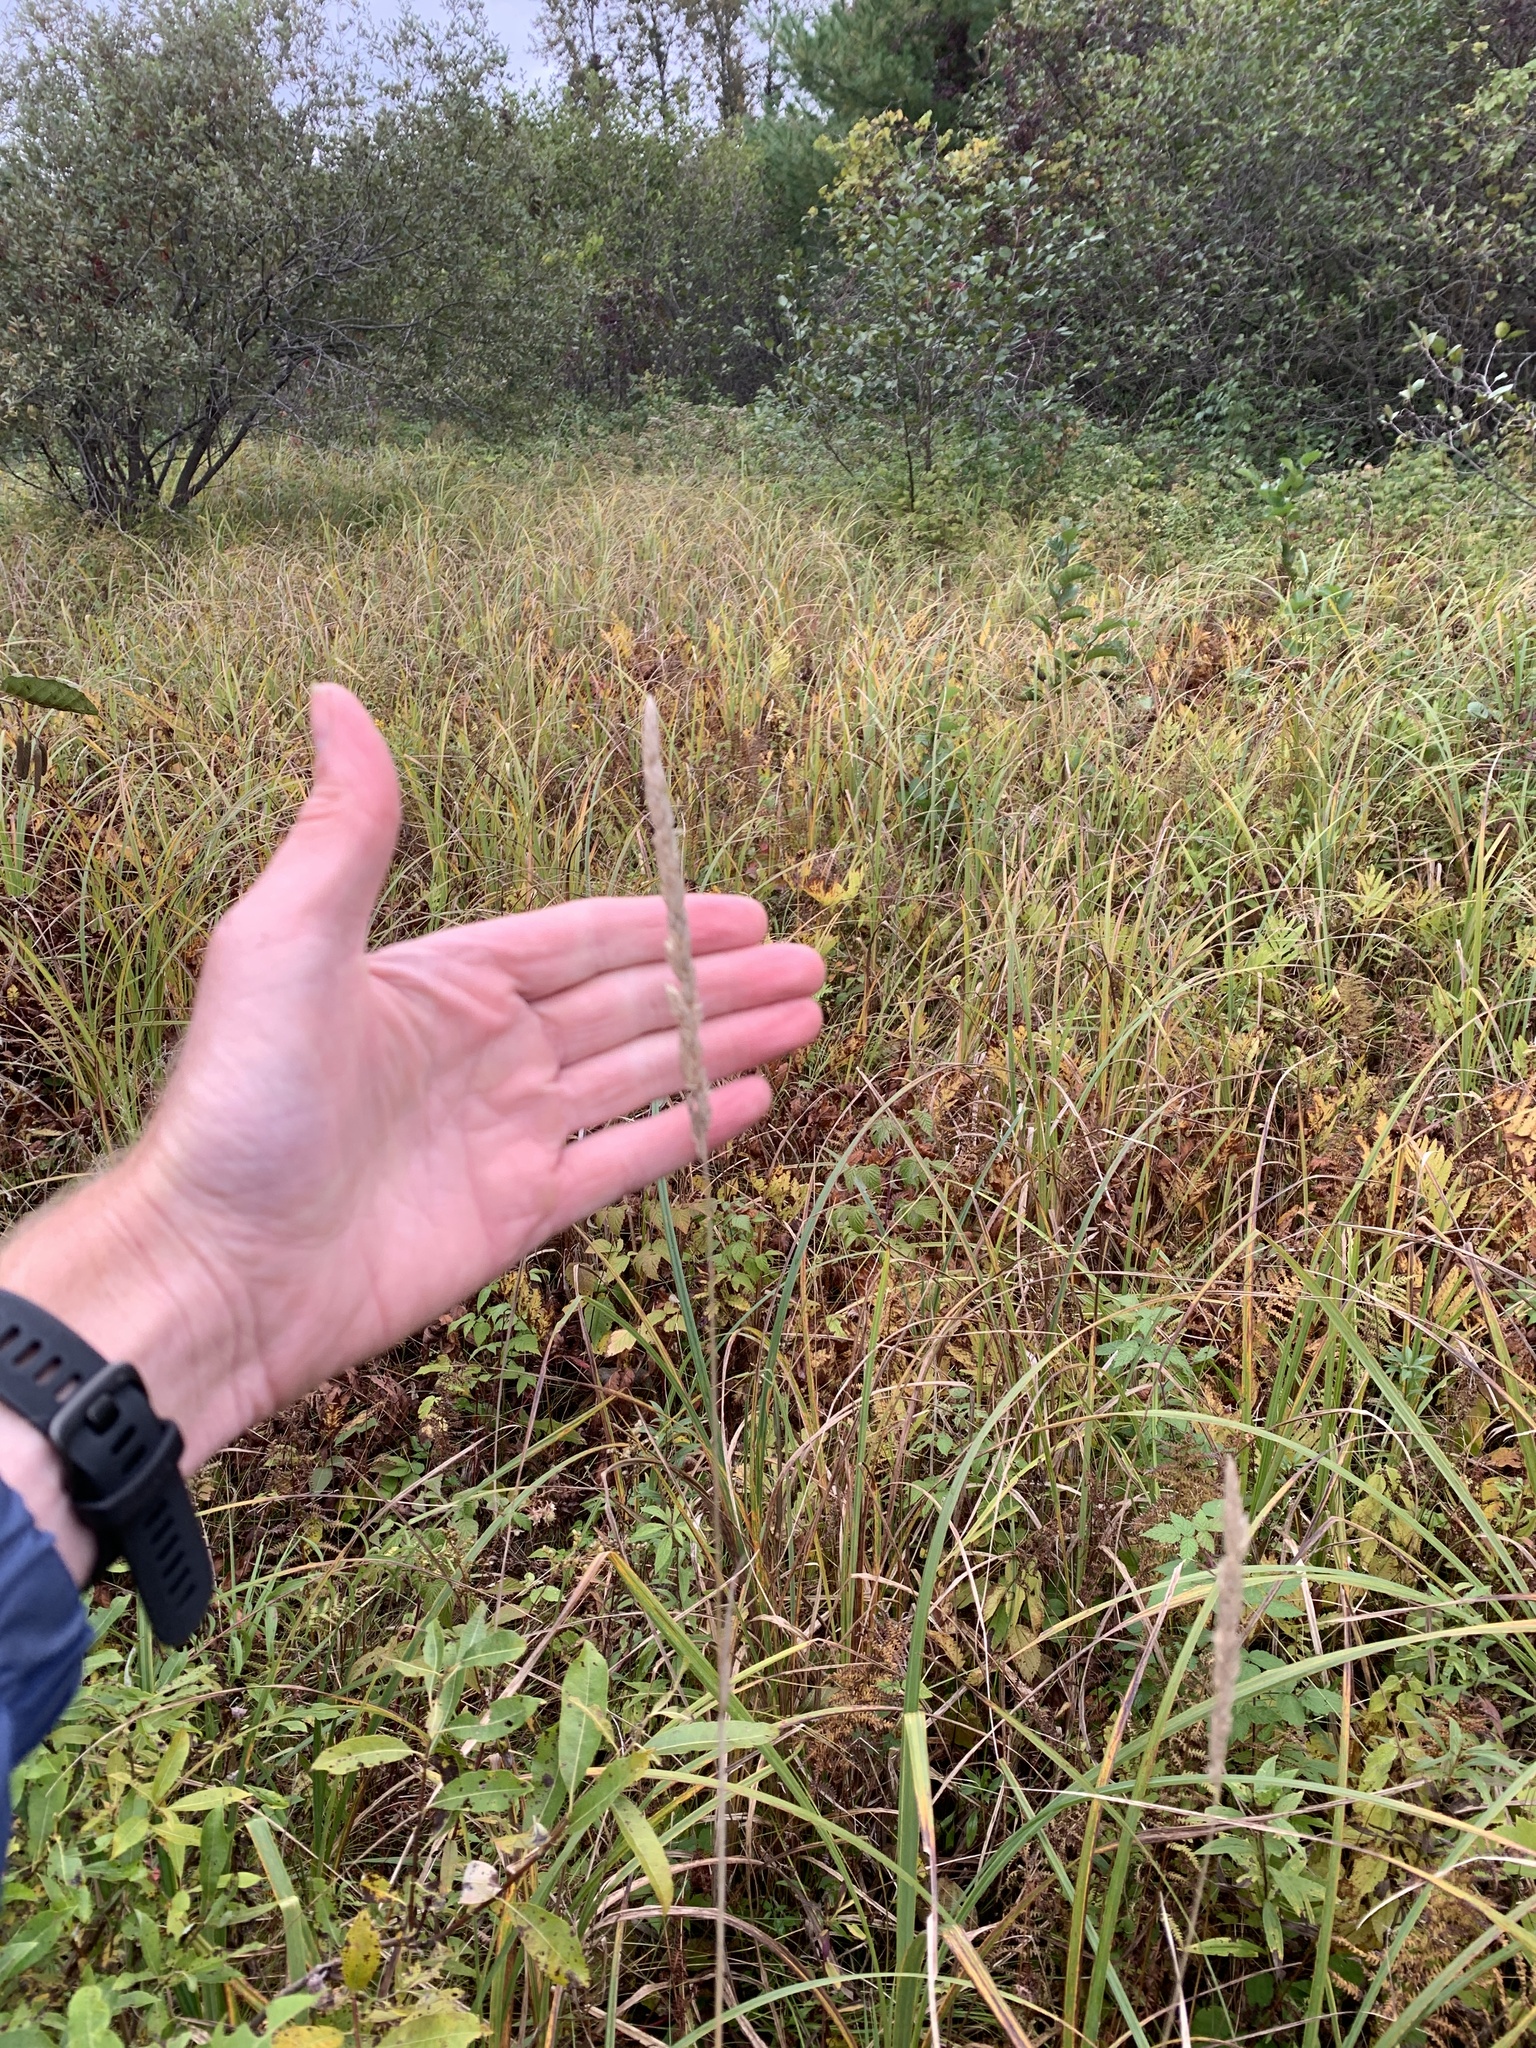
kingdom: Plantae
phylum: Tracheophyta
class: Liliopsida
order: Poales
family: Poaceae
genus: Phalaris
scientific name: Phalaris arundinacea
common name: Reed canary-grass
